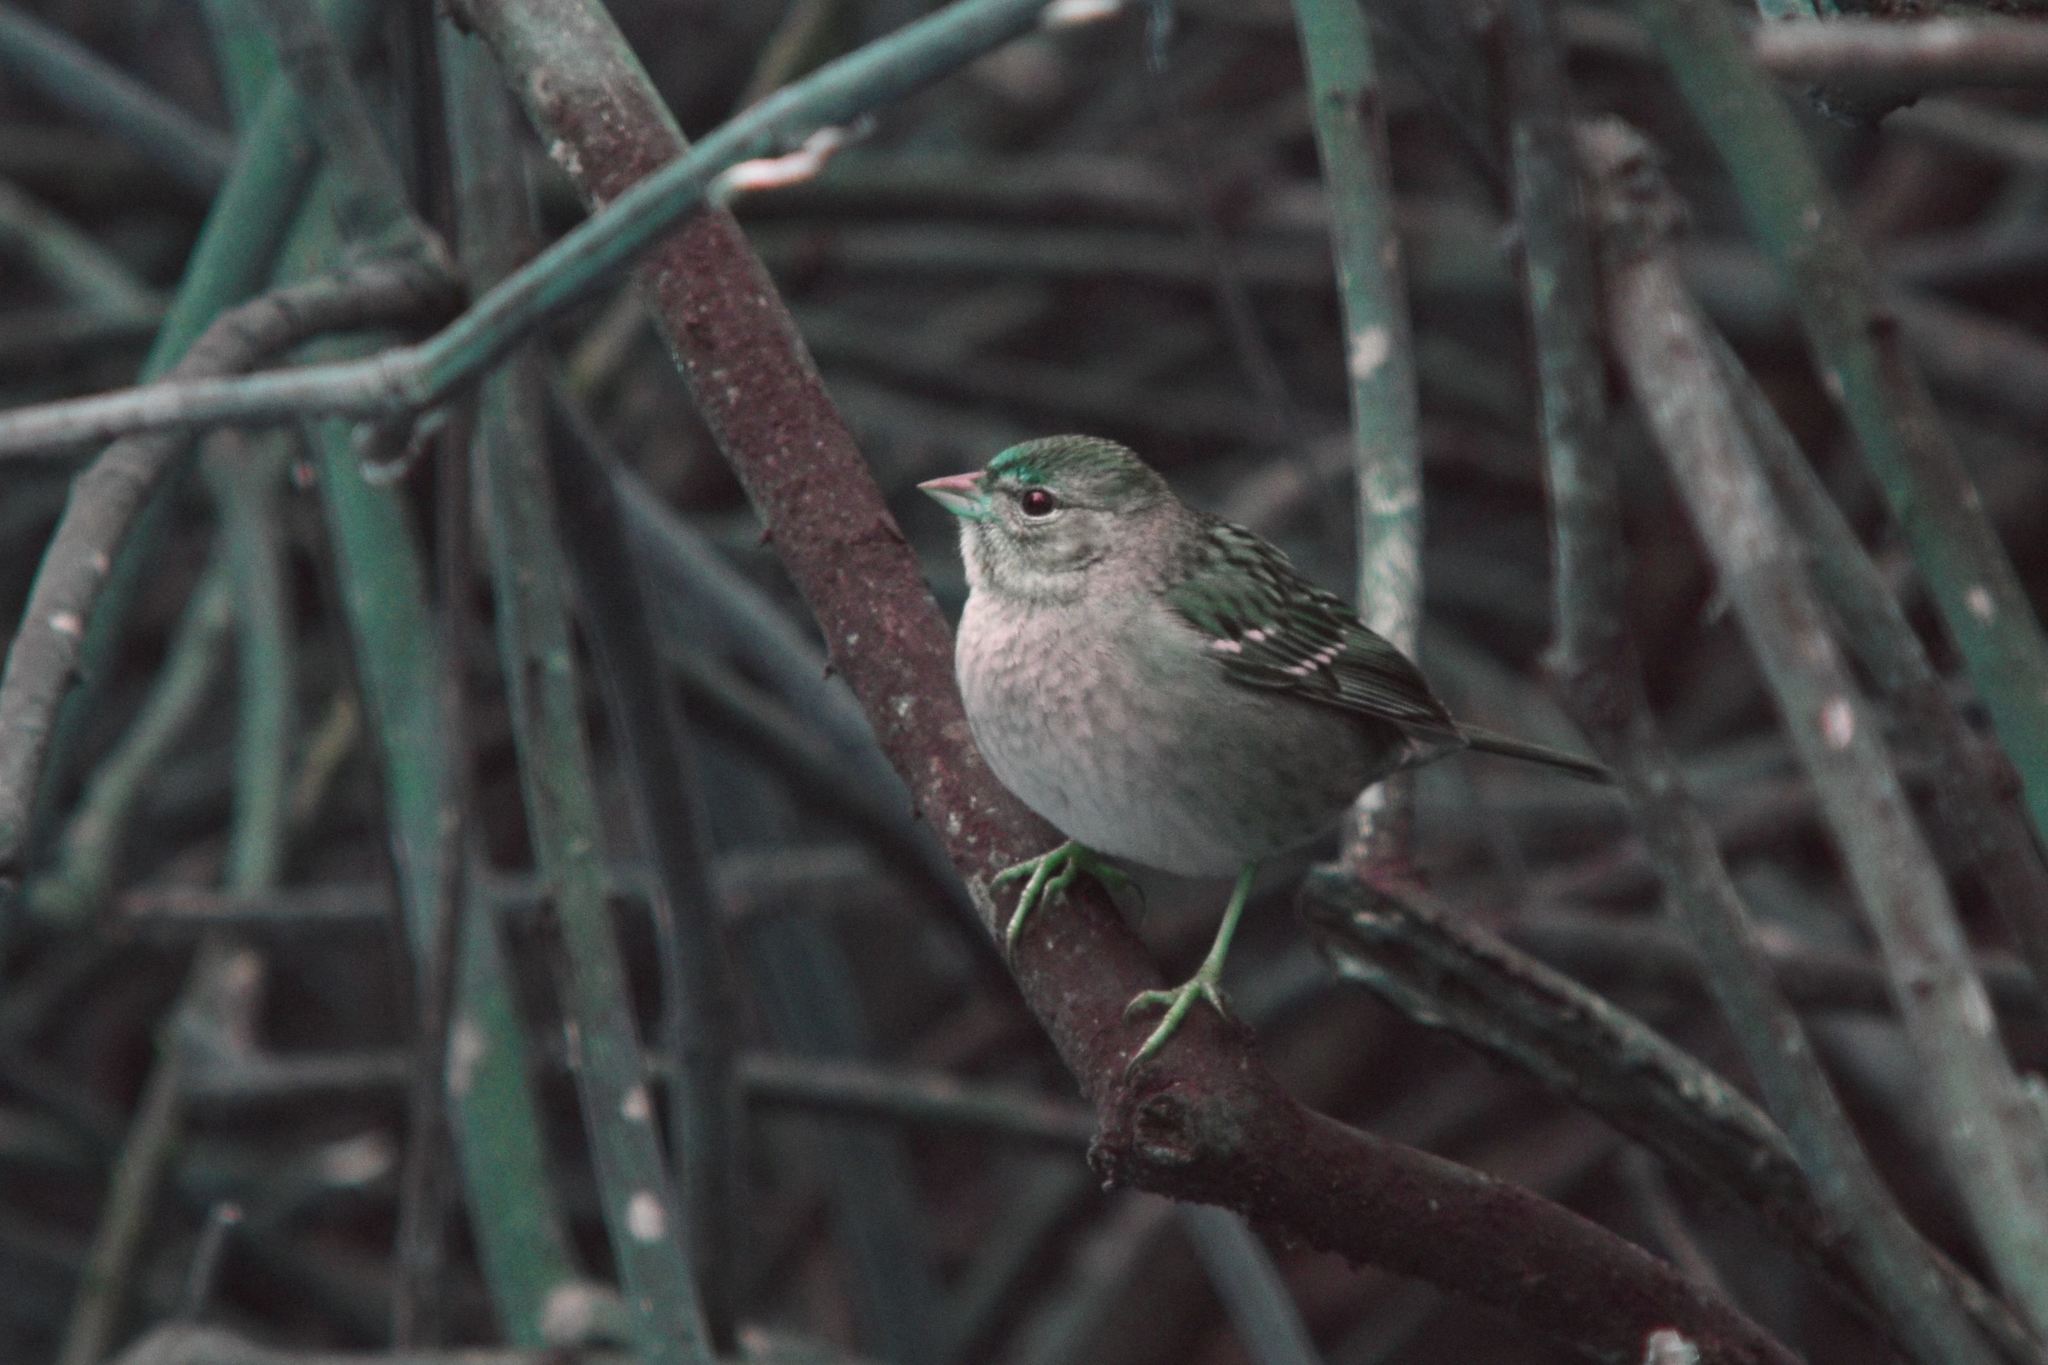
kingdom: Animalia
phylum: Chordata
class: Aves
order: Passeriformes
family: Passerellidae
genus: Zonotrichia
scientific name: Zonotrichia atricapilla
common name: Golden-crowned sparrow
